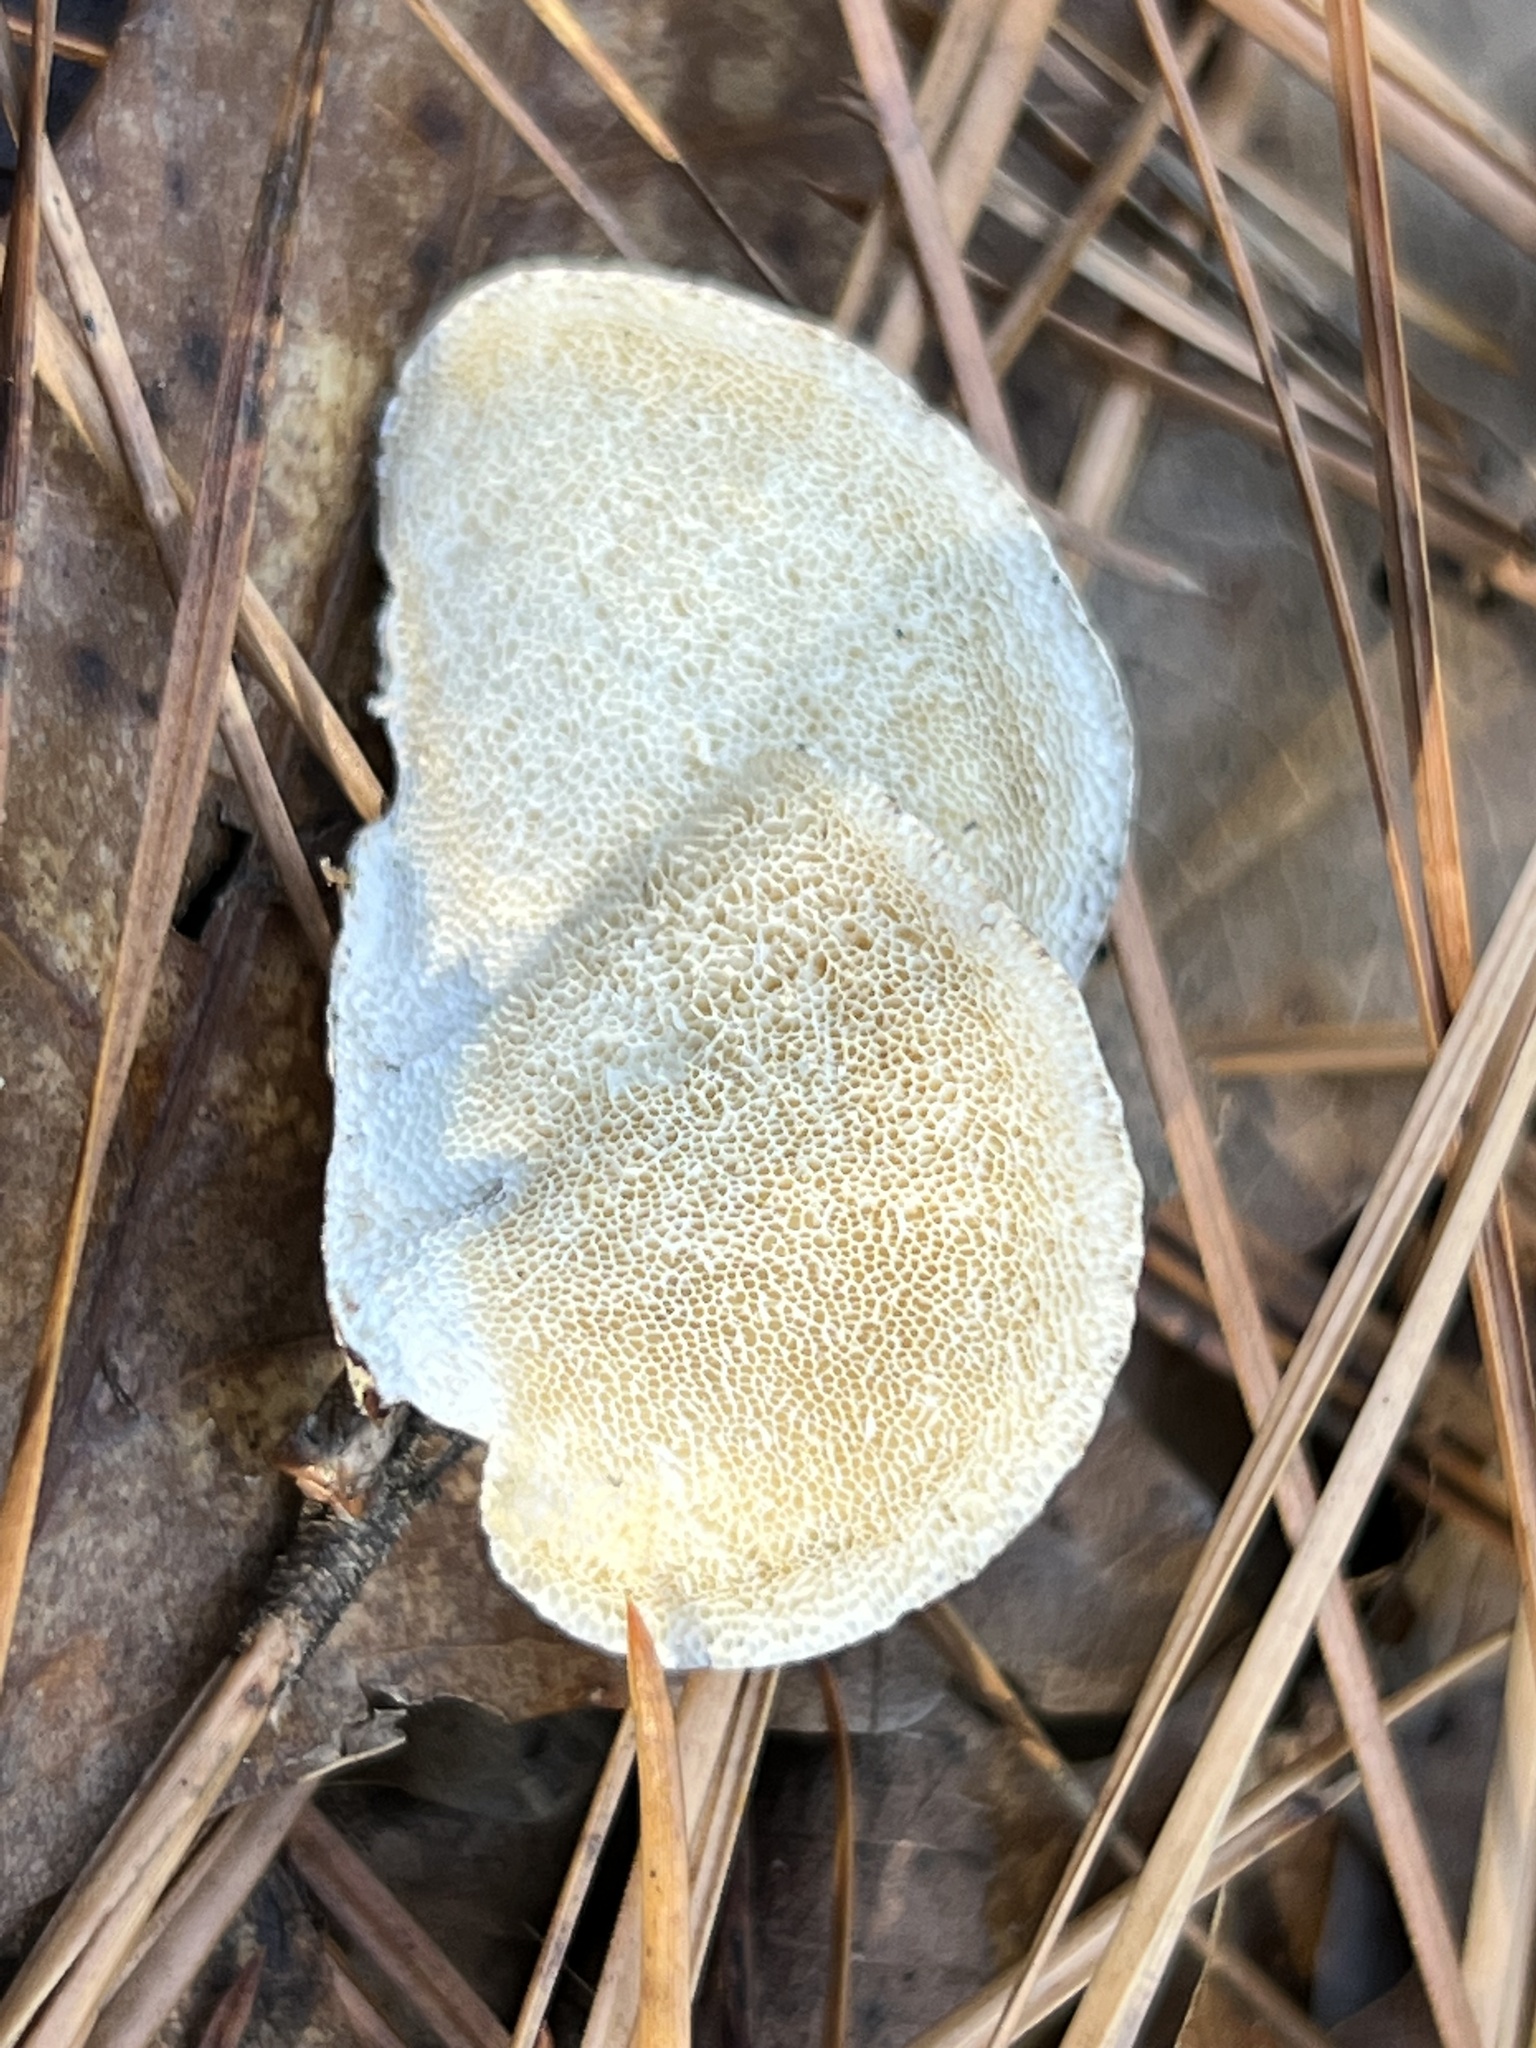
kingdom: Fungi
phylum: Basidiomycota
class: Agaricomycetes
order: Polyporales
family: Polyporaceae
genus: Poronidulus
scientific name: Poronidulus conchifer
